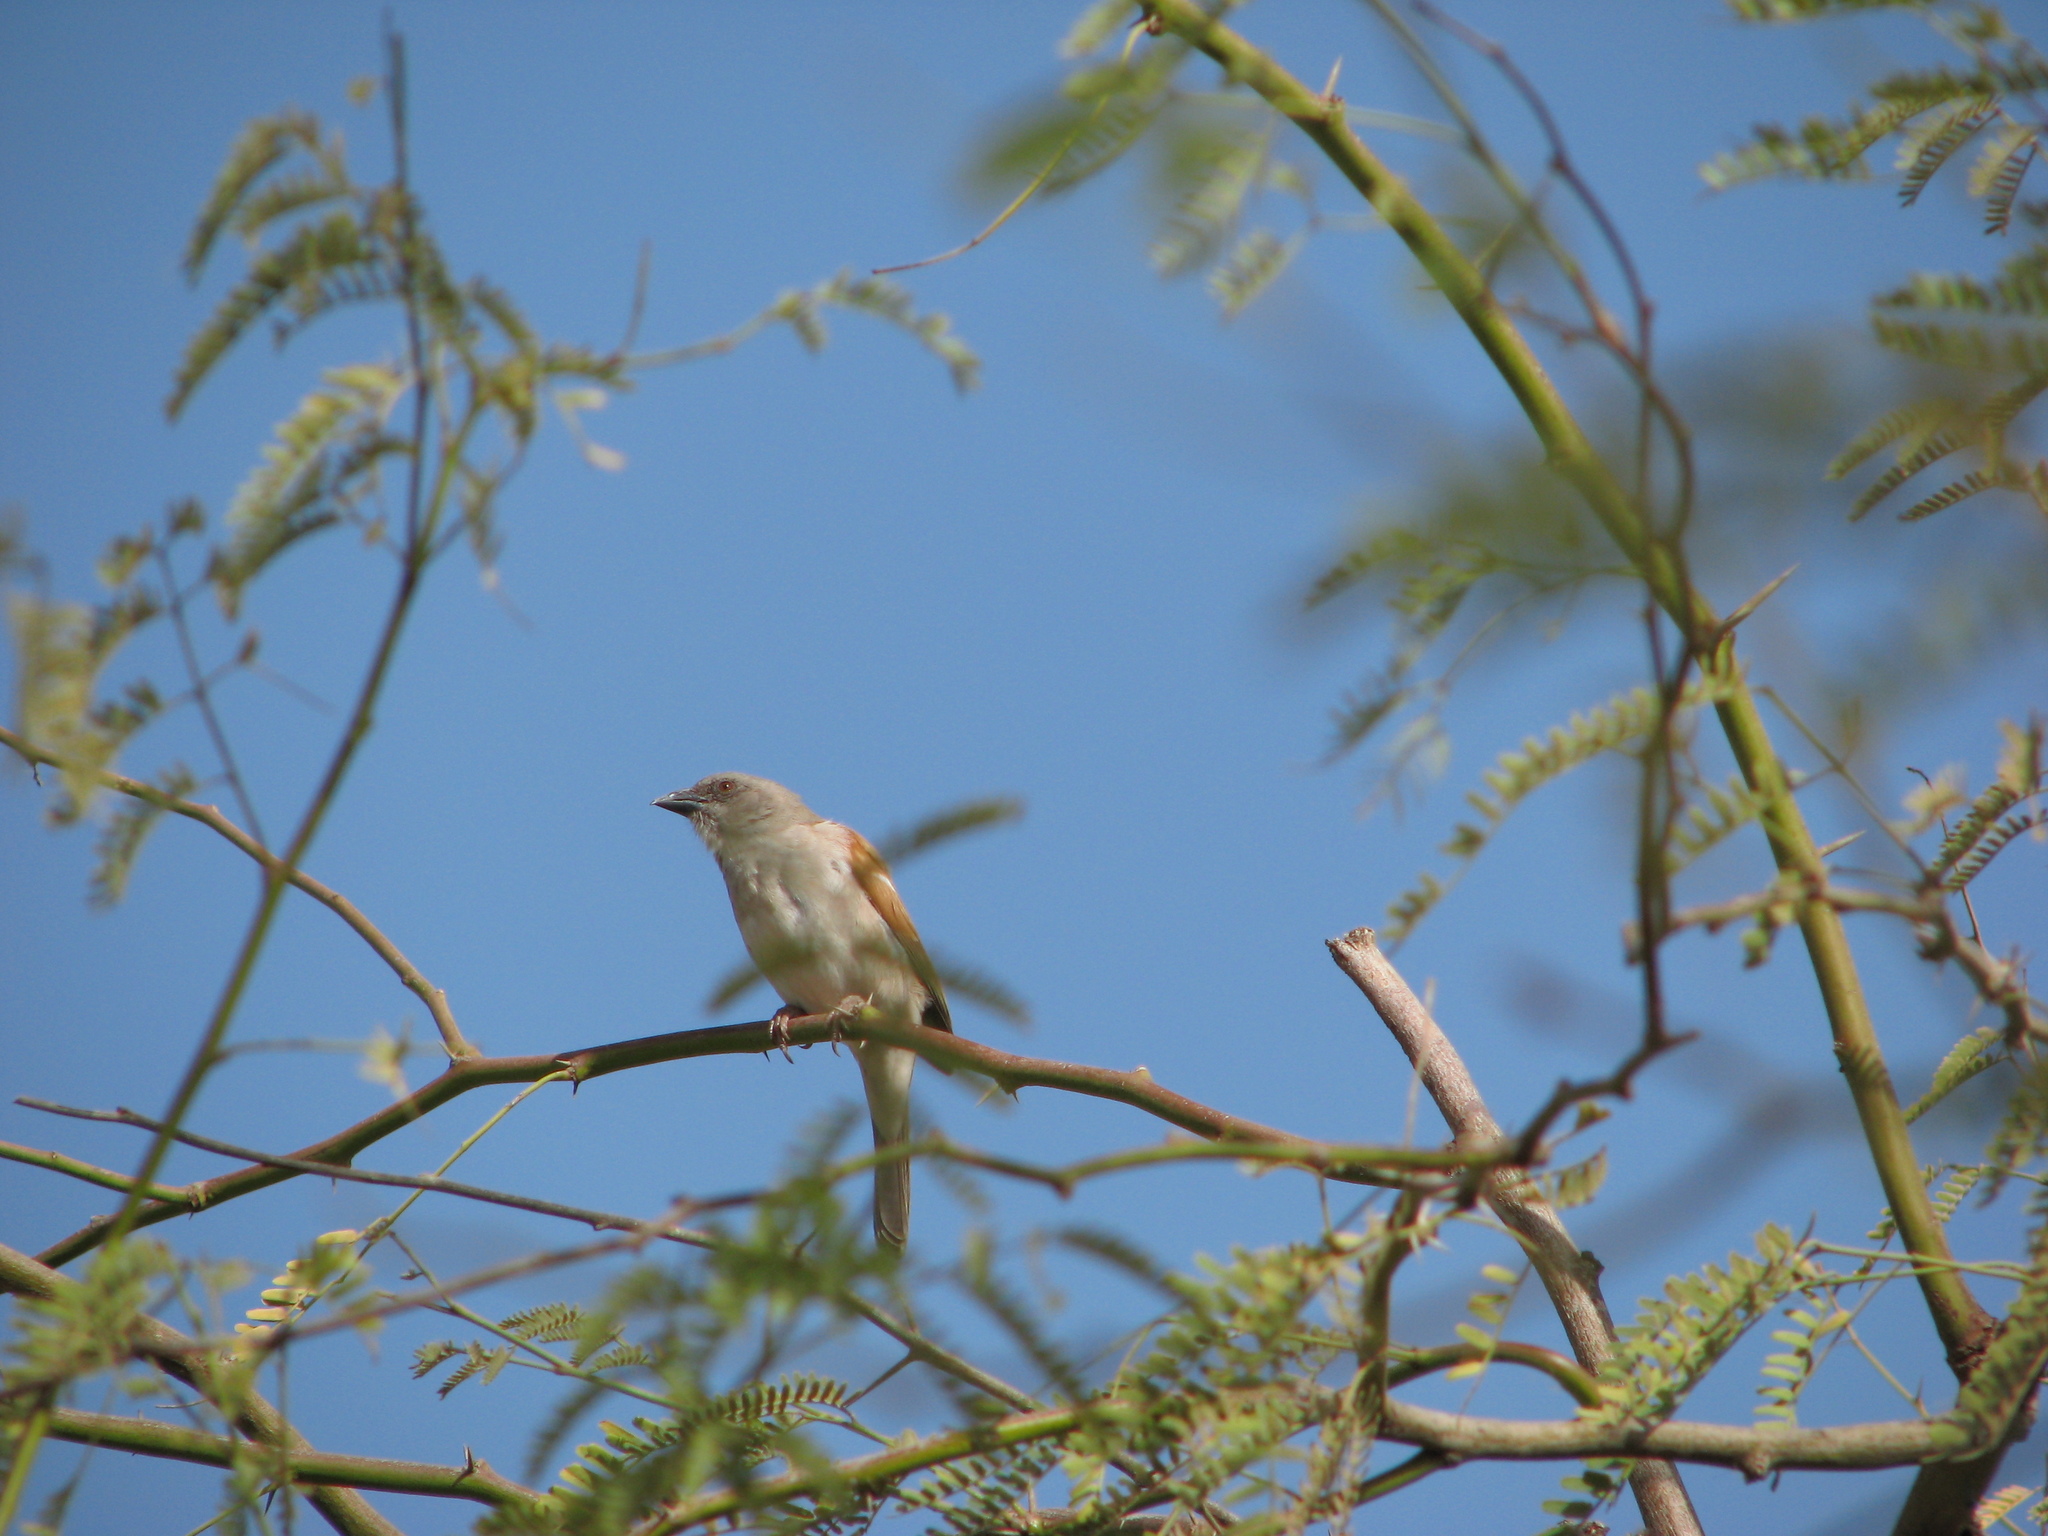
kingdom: Animalia
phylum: Chordata
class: Aves
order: Passeriformes
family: Passeridae
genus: Passer
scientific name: Passer griseus
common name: Northern grey-headed sparrow
